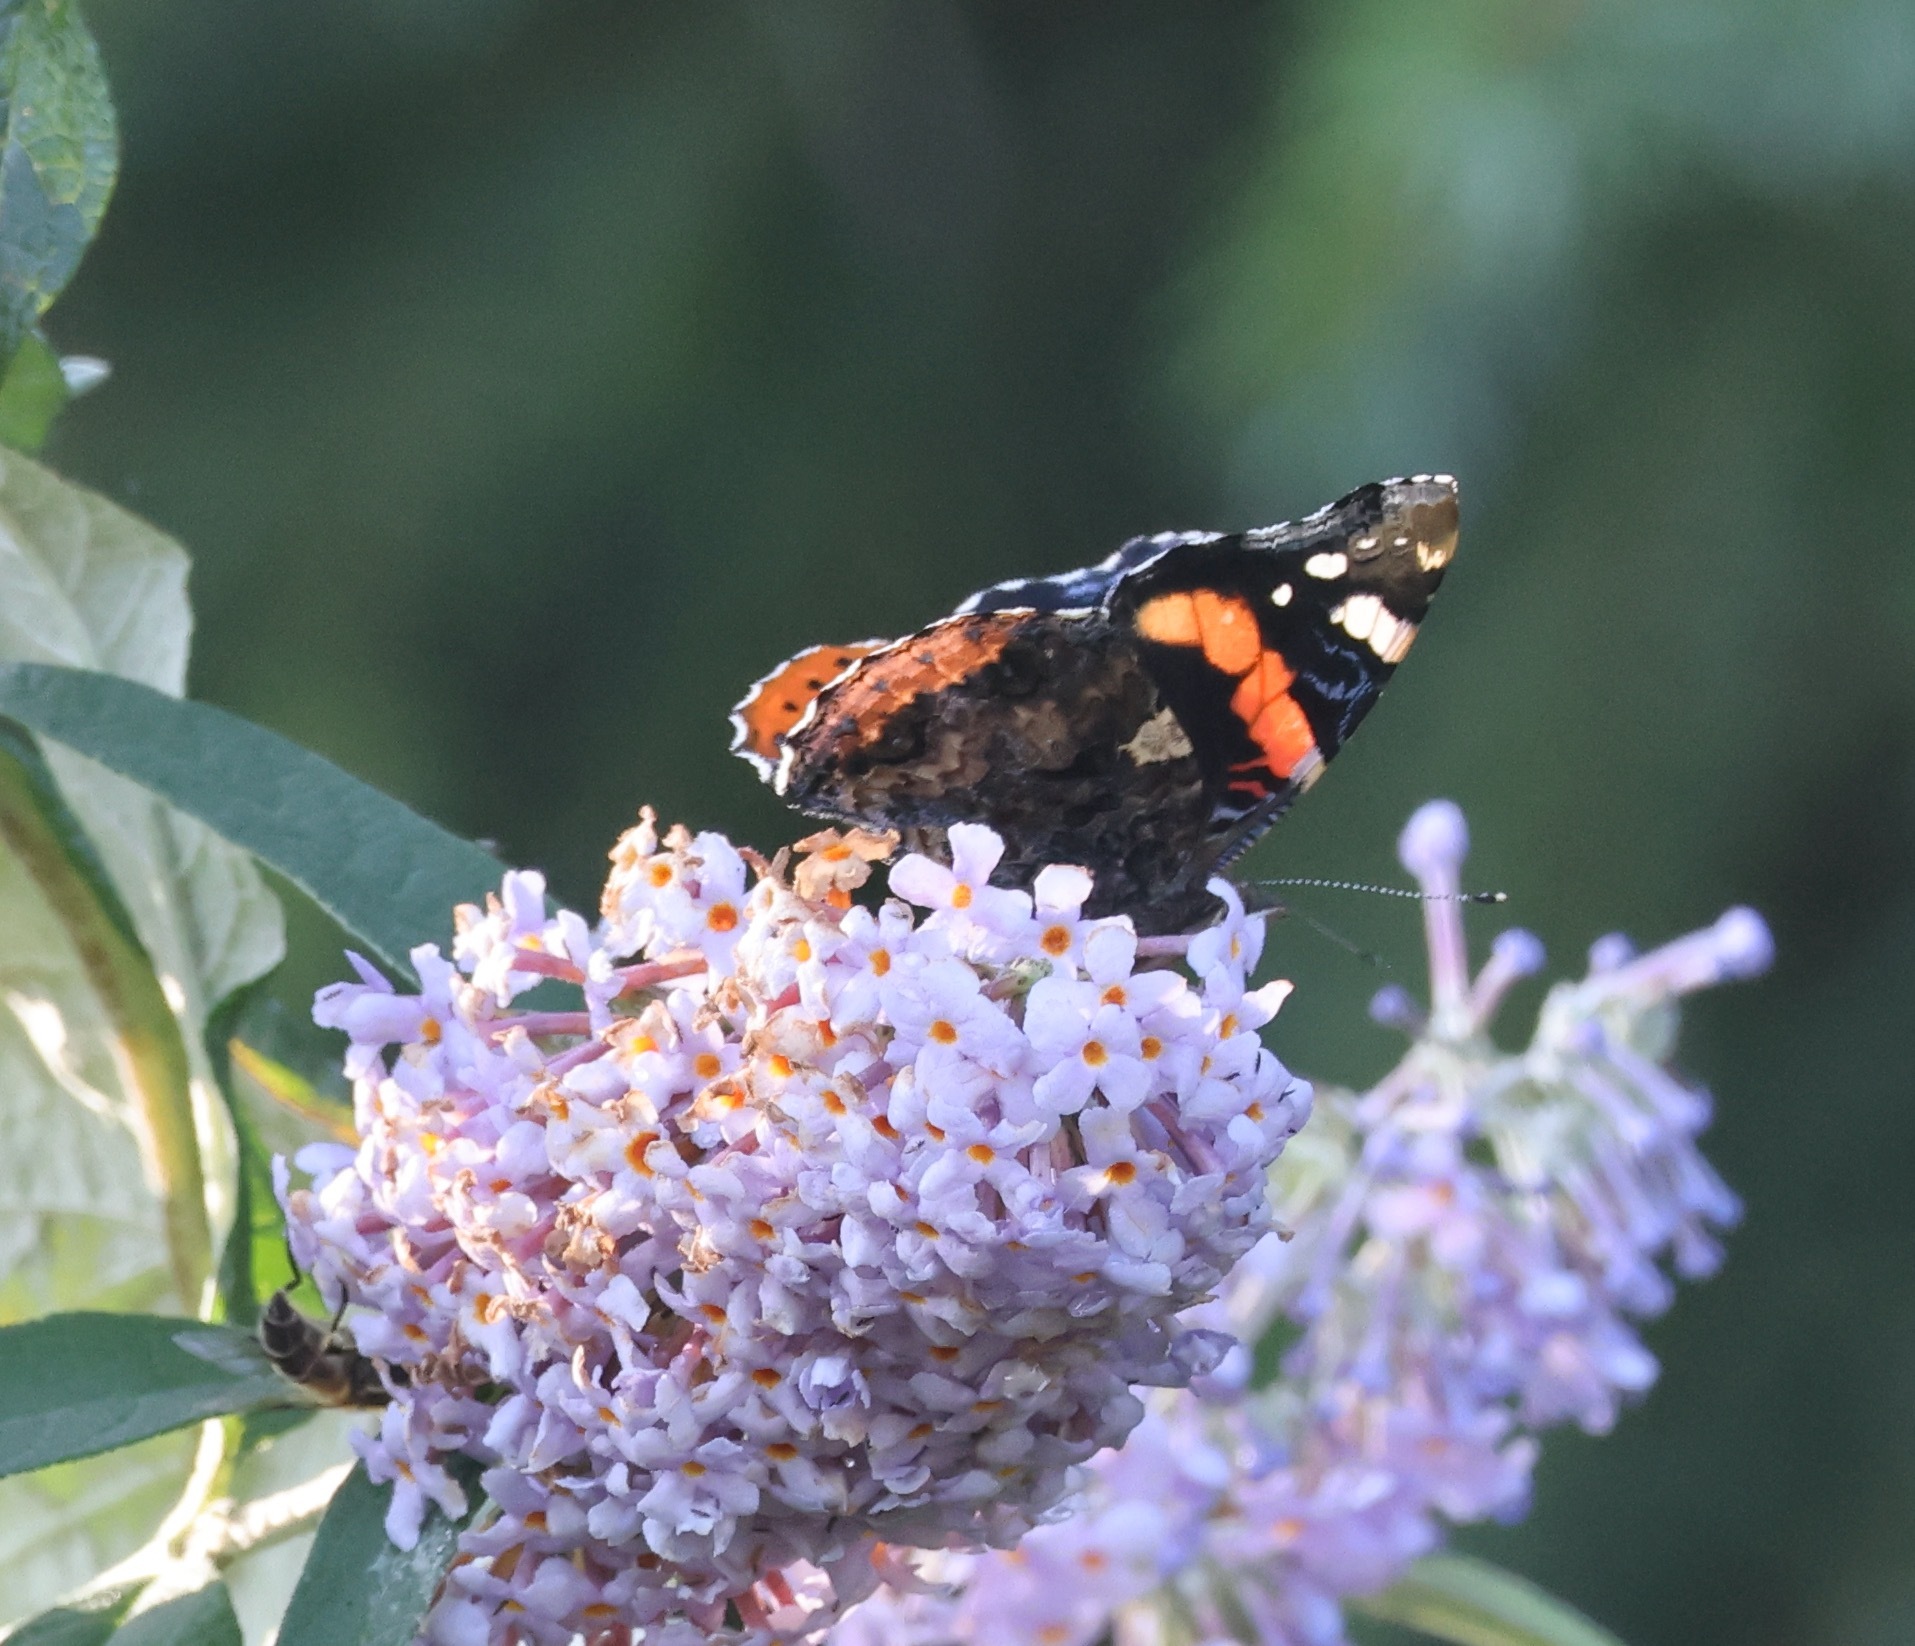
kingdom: Animalia
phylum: Arthropoda
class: Insecta
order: Lepidoptera
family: Nymphalidae
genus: Vanessa
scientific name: Vanessa atalanta
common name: Red admiral
